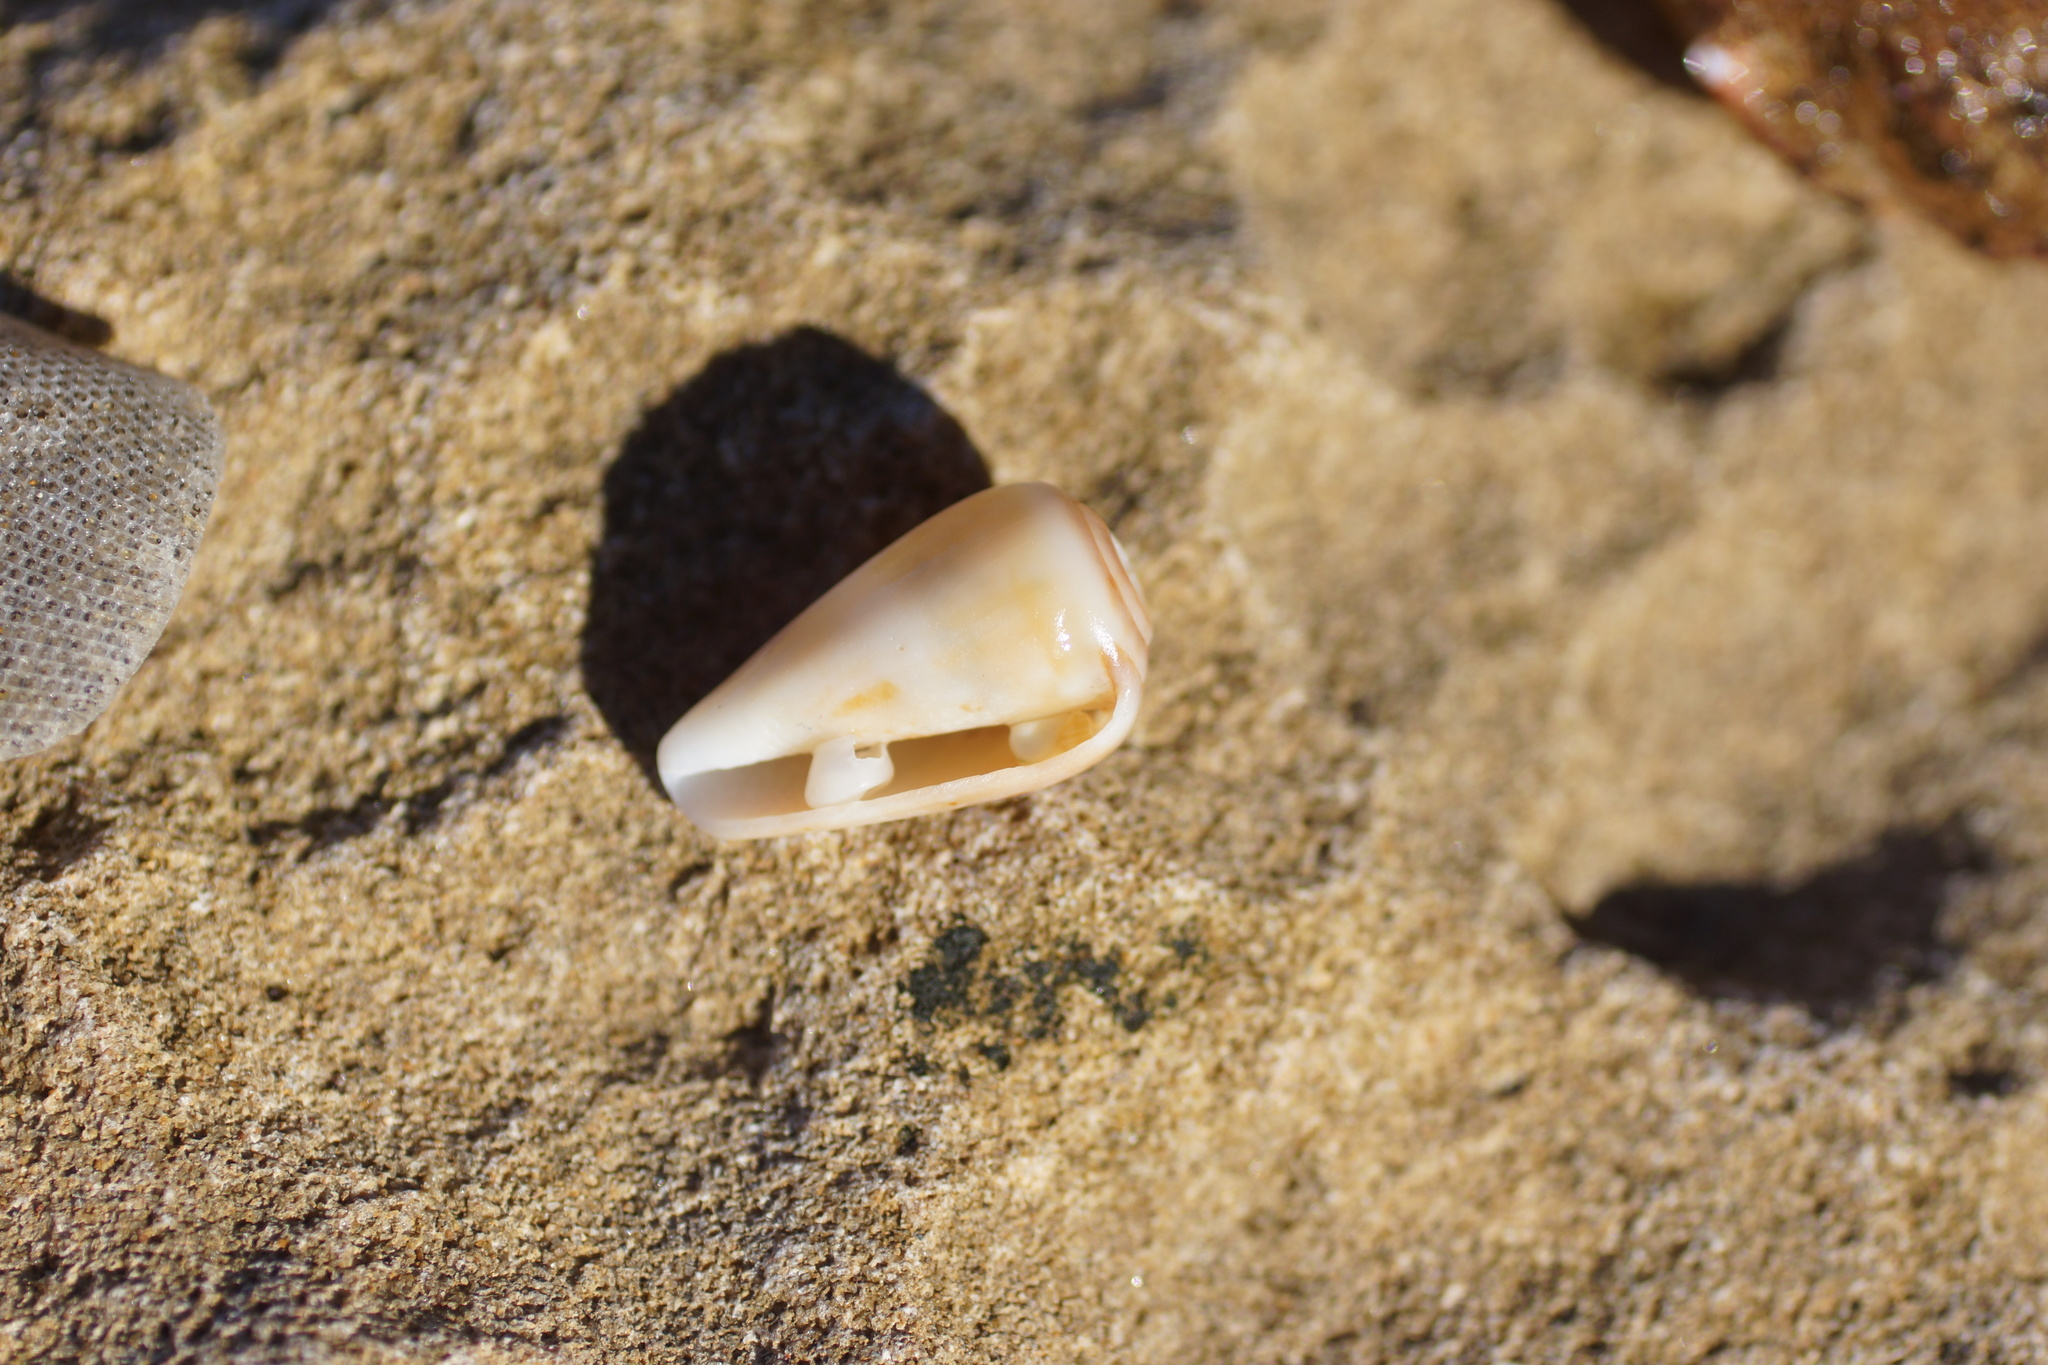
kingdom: Animalia
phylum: Mollusca
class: Gastropoda
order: Neogastropoda
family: Conidae
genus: Conus
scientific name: Conus anemone
